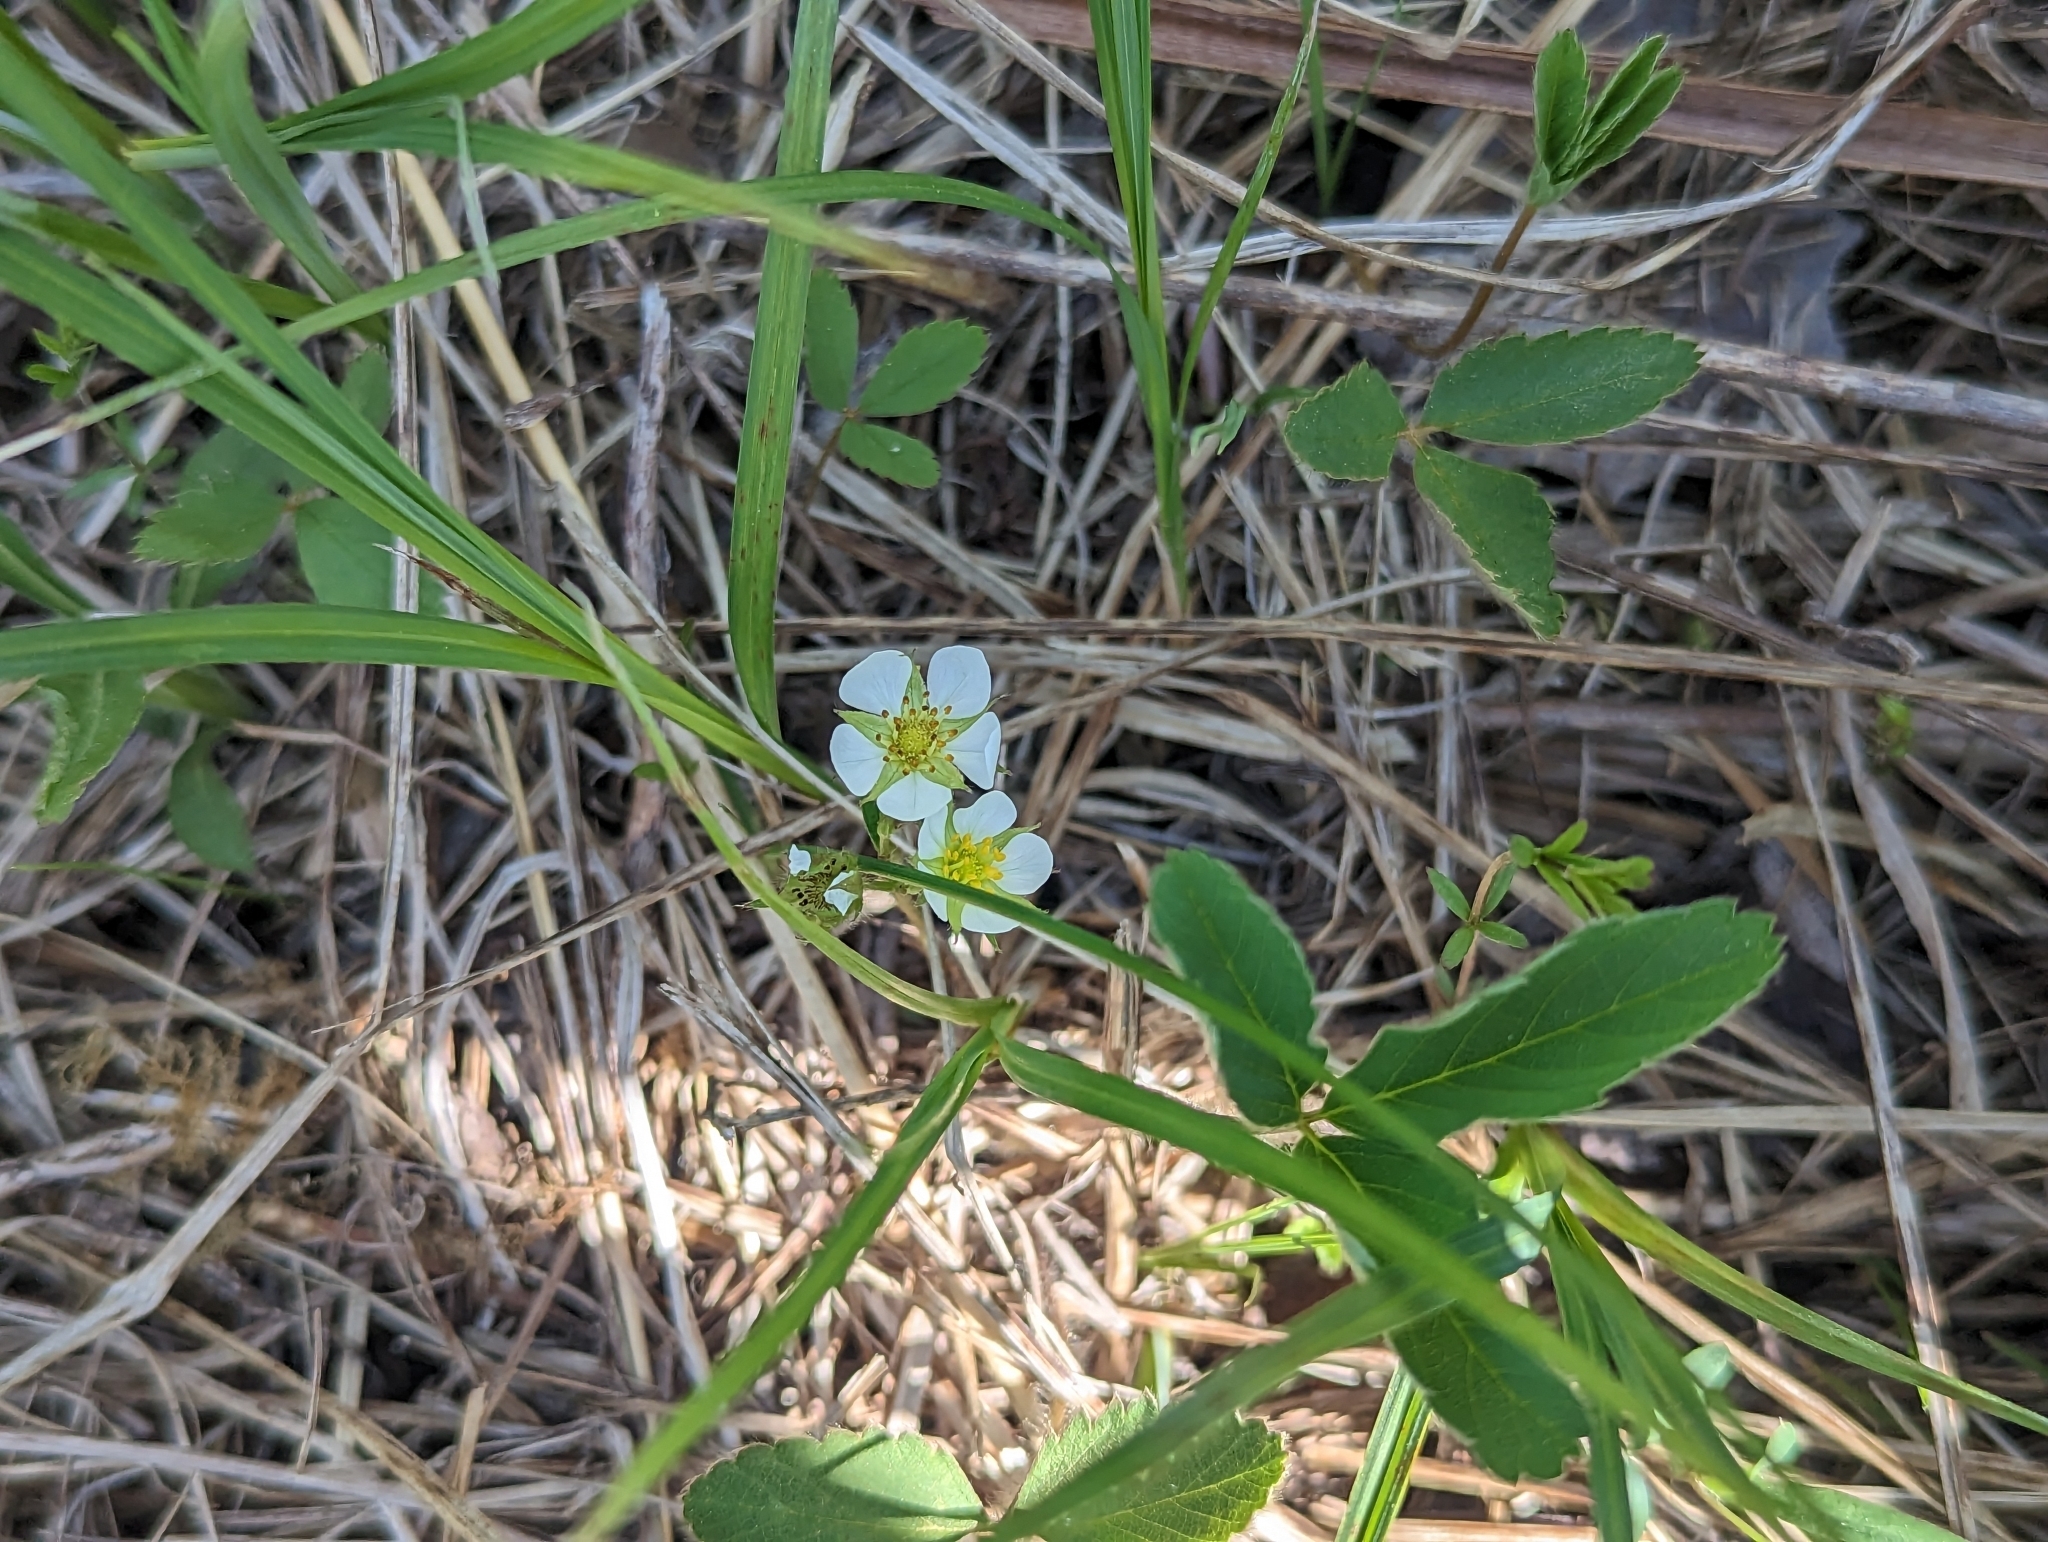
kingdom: Plantae
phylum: Tracheophyta
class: Magnoliopsida
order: Rosales
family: Rosaceae
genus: Fragaria
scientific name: Fragaria virginiana
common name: Thickleaved wild strawberry
